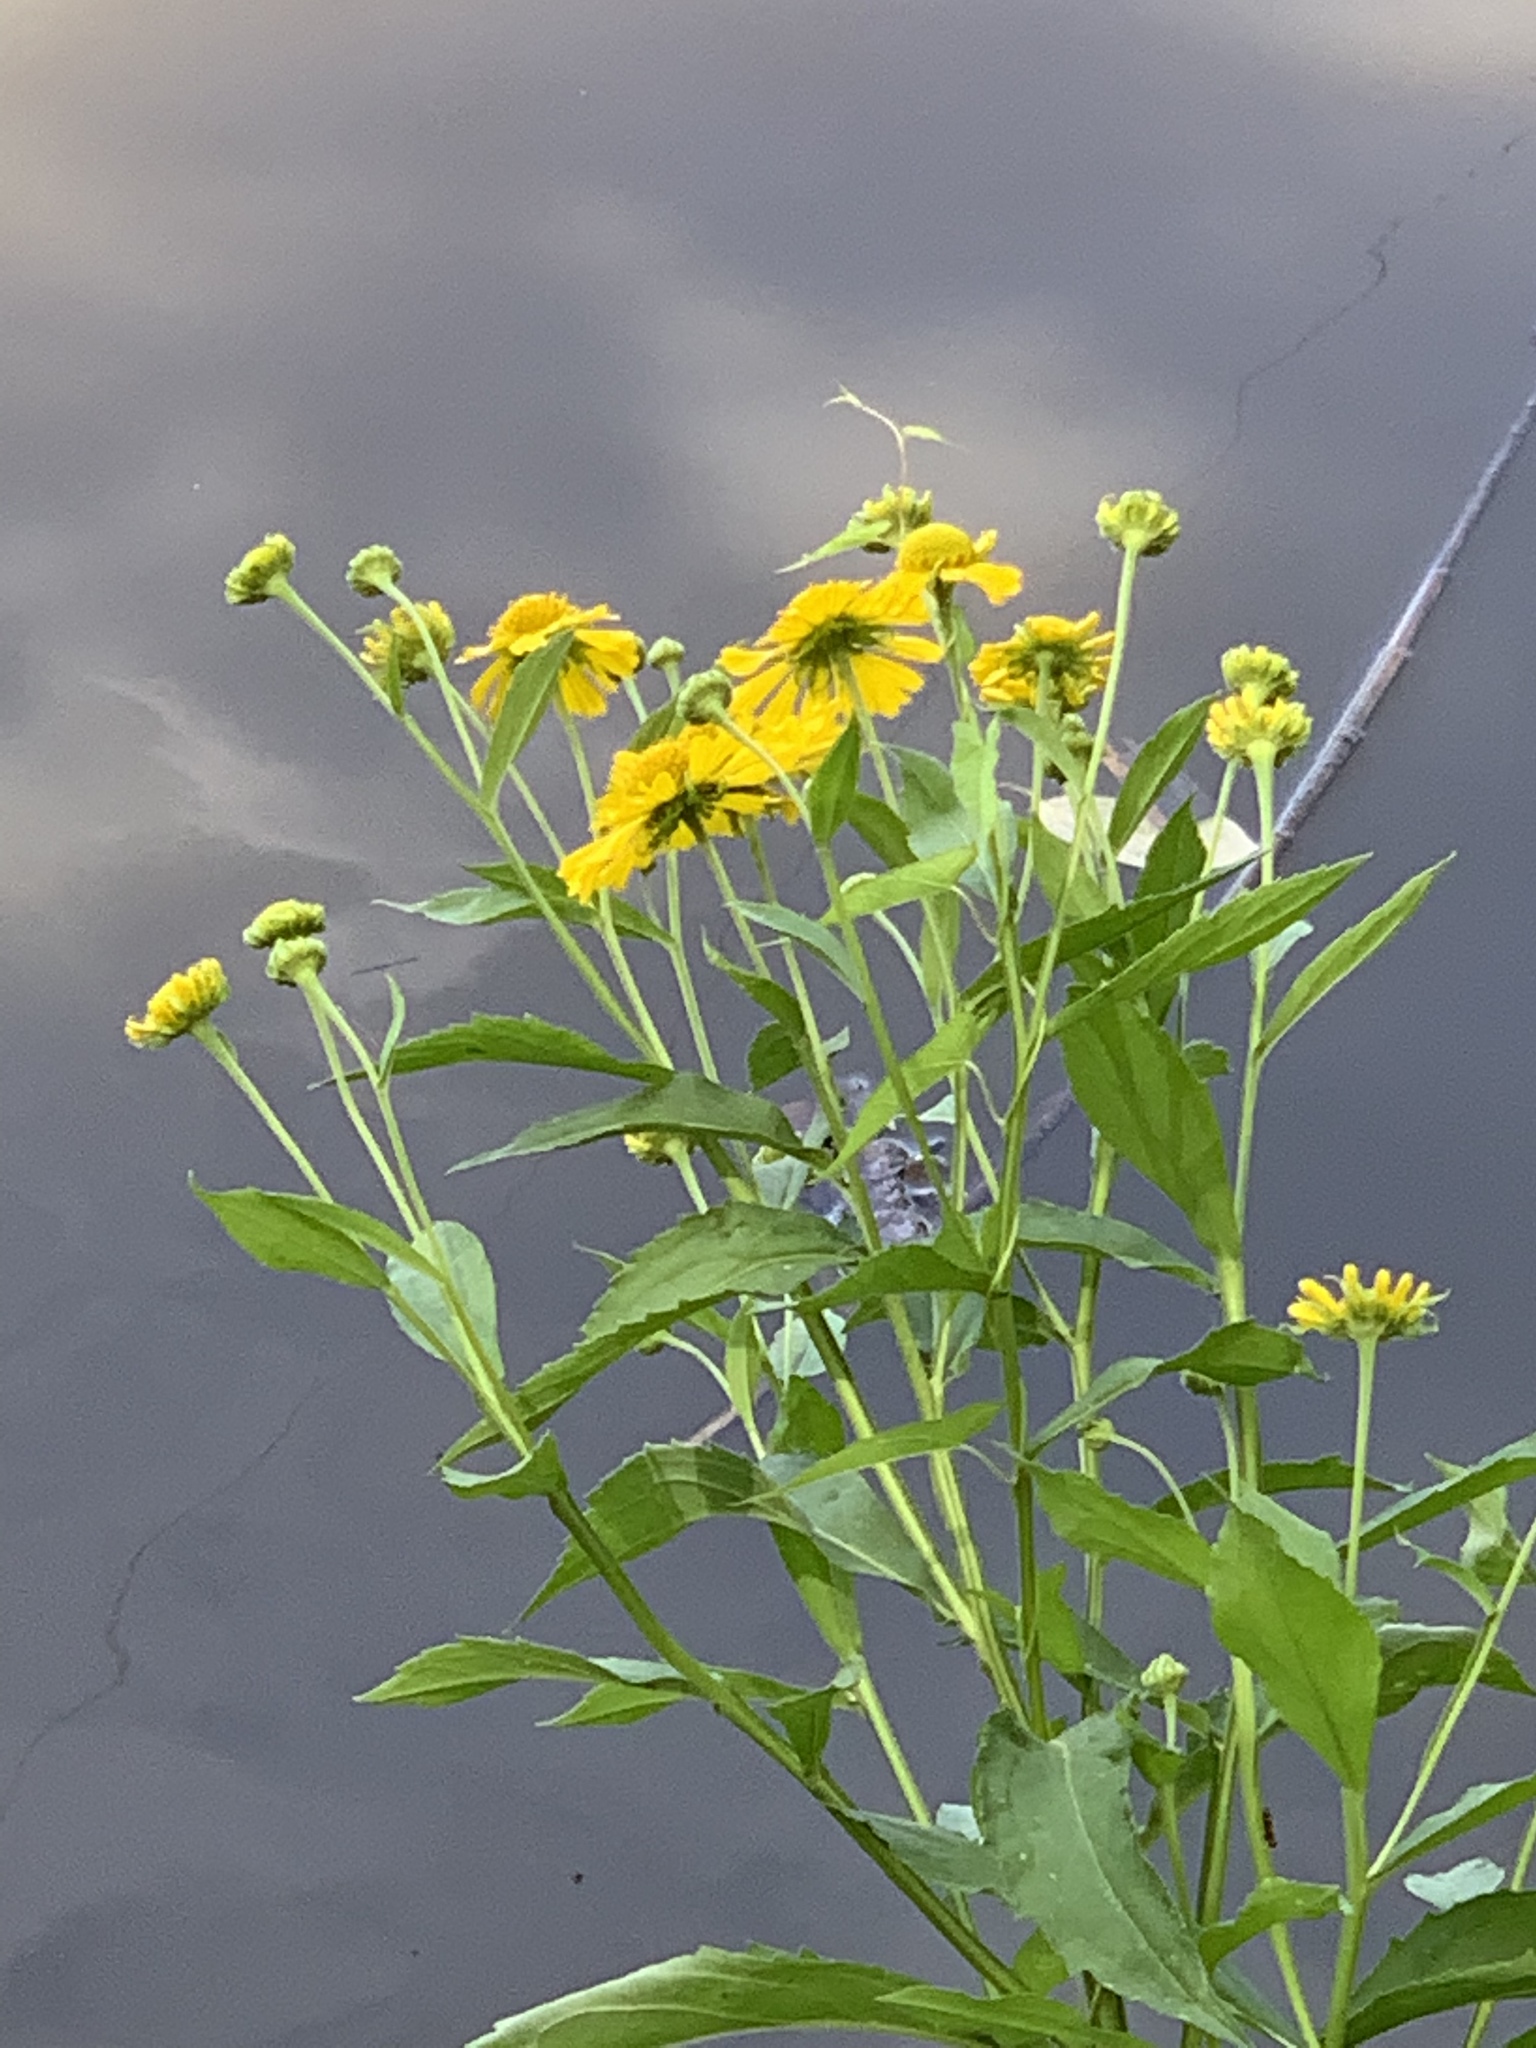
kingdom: Plantae
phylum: Tracheophyta
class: Magnoliopsida
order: Asterales
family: Asteraceae
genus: Helenium
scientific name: Helenium autumnale
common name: Sneezeweed
